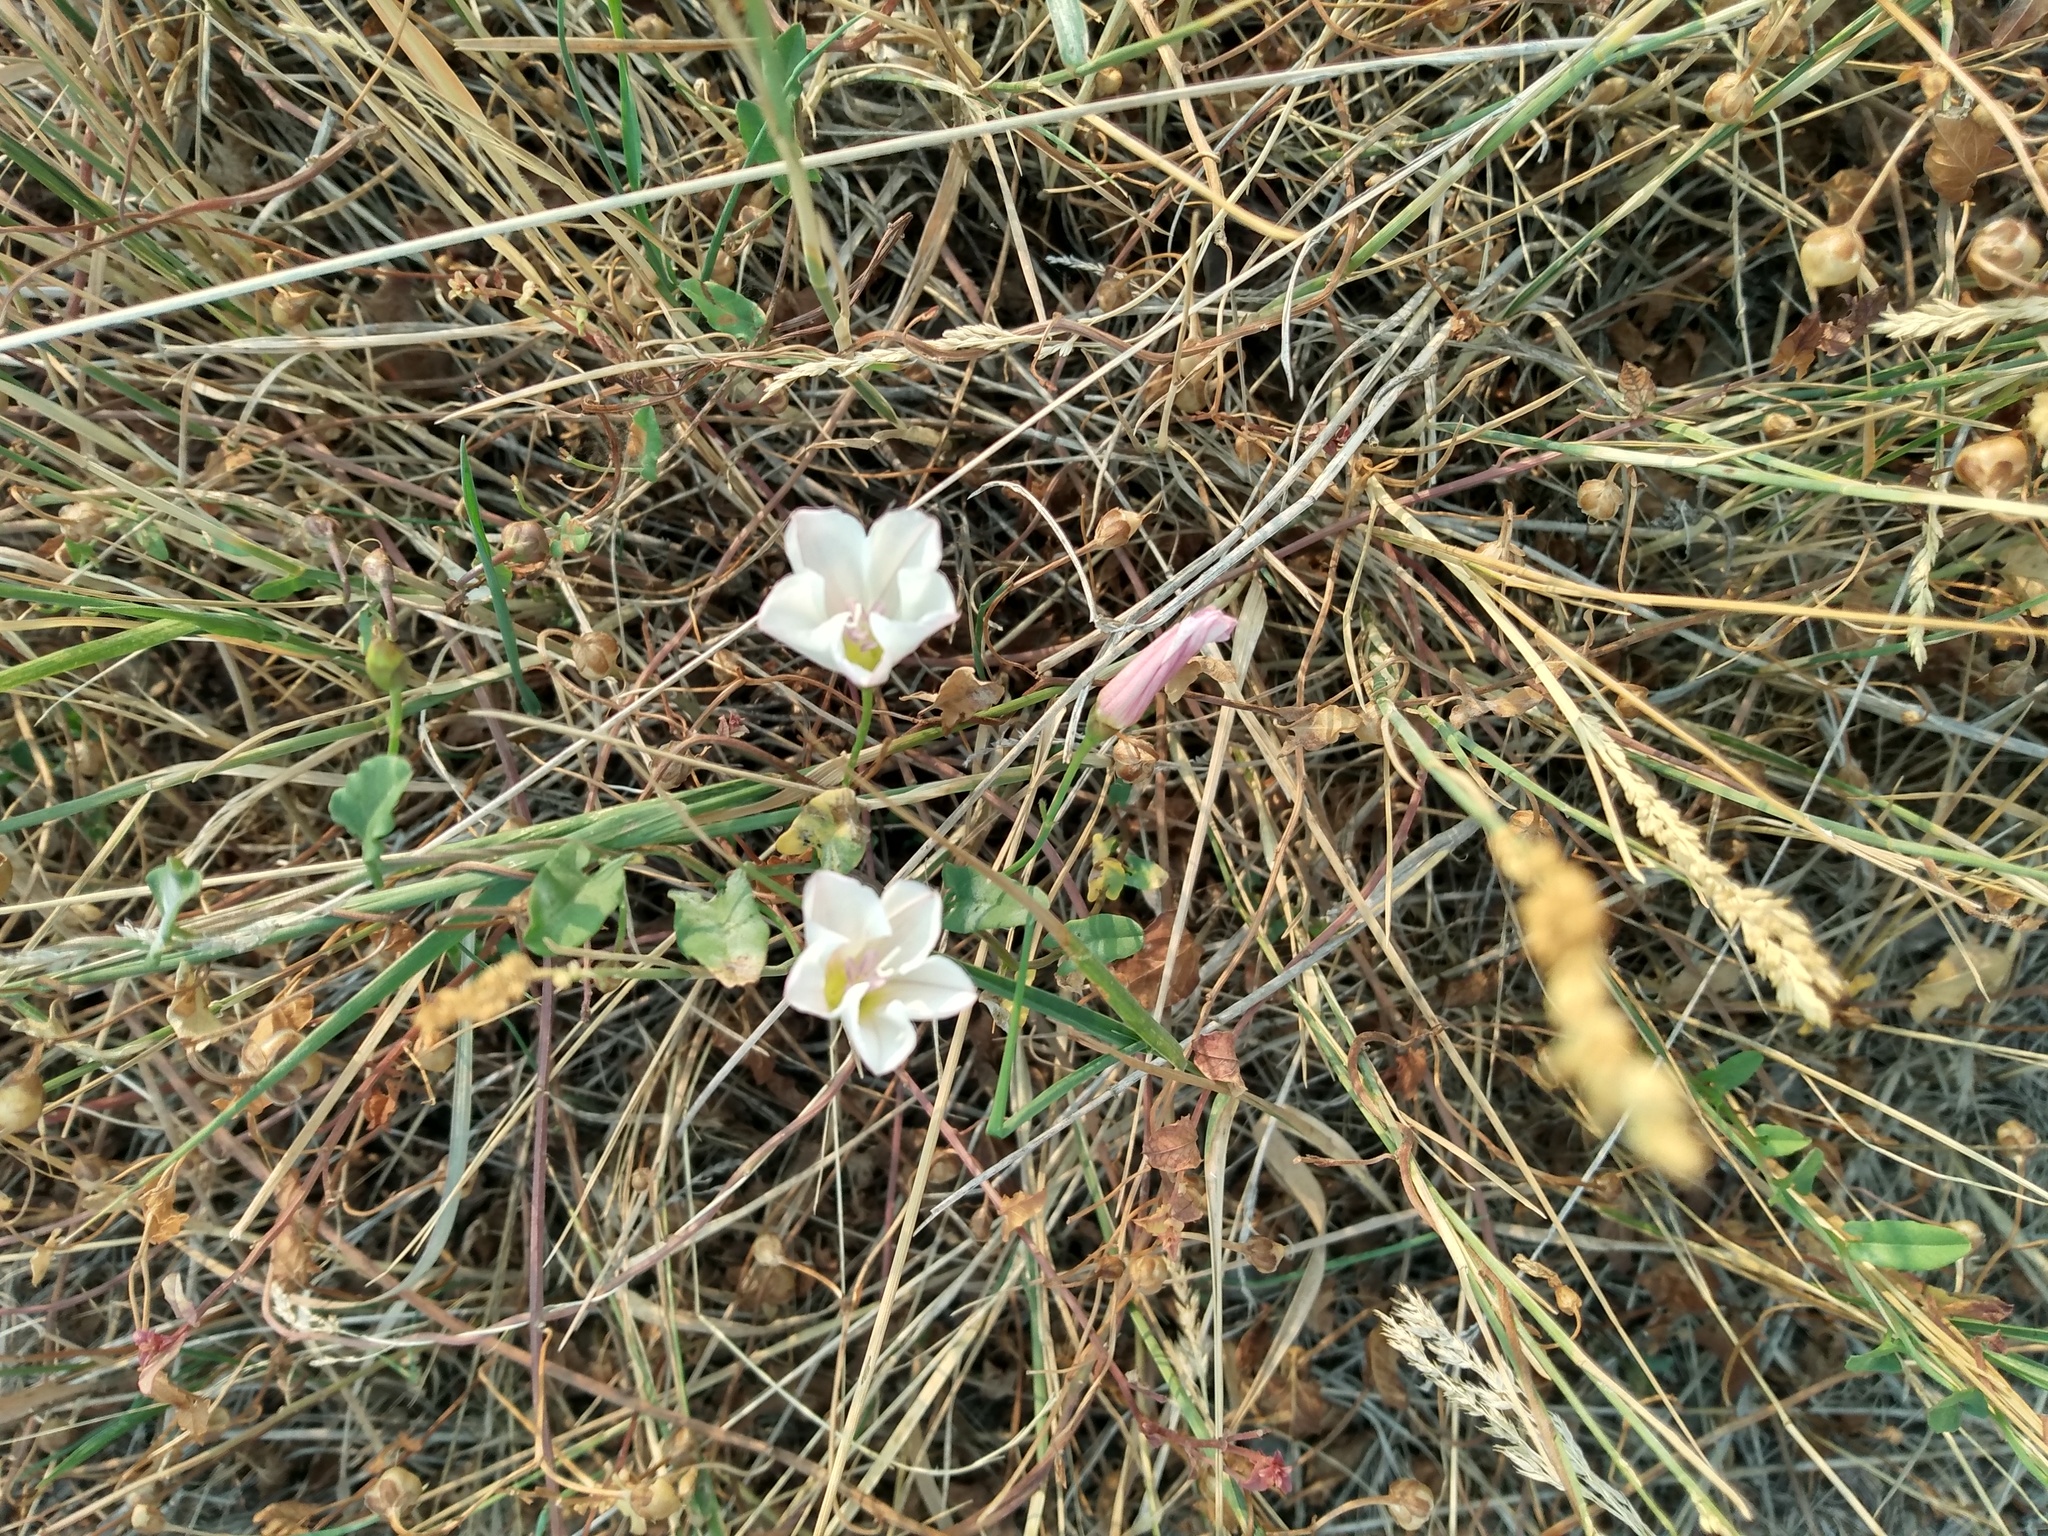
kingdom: Plantae
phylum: Tracheophyta
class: Magnoliopsida
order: Solanales
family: Convolvulaceae
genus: Convolvulus
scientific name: Convolvulus arvensis
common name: Field bindweed
